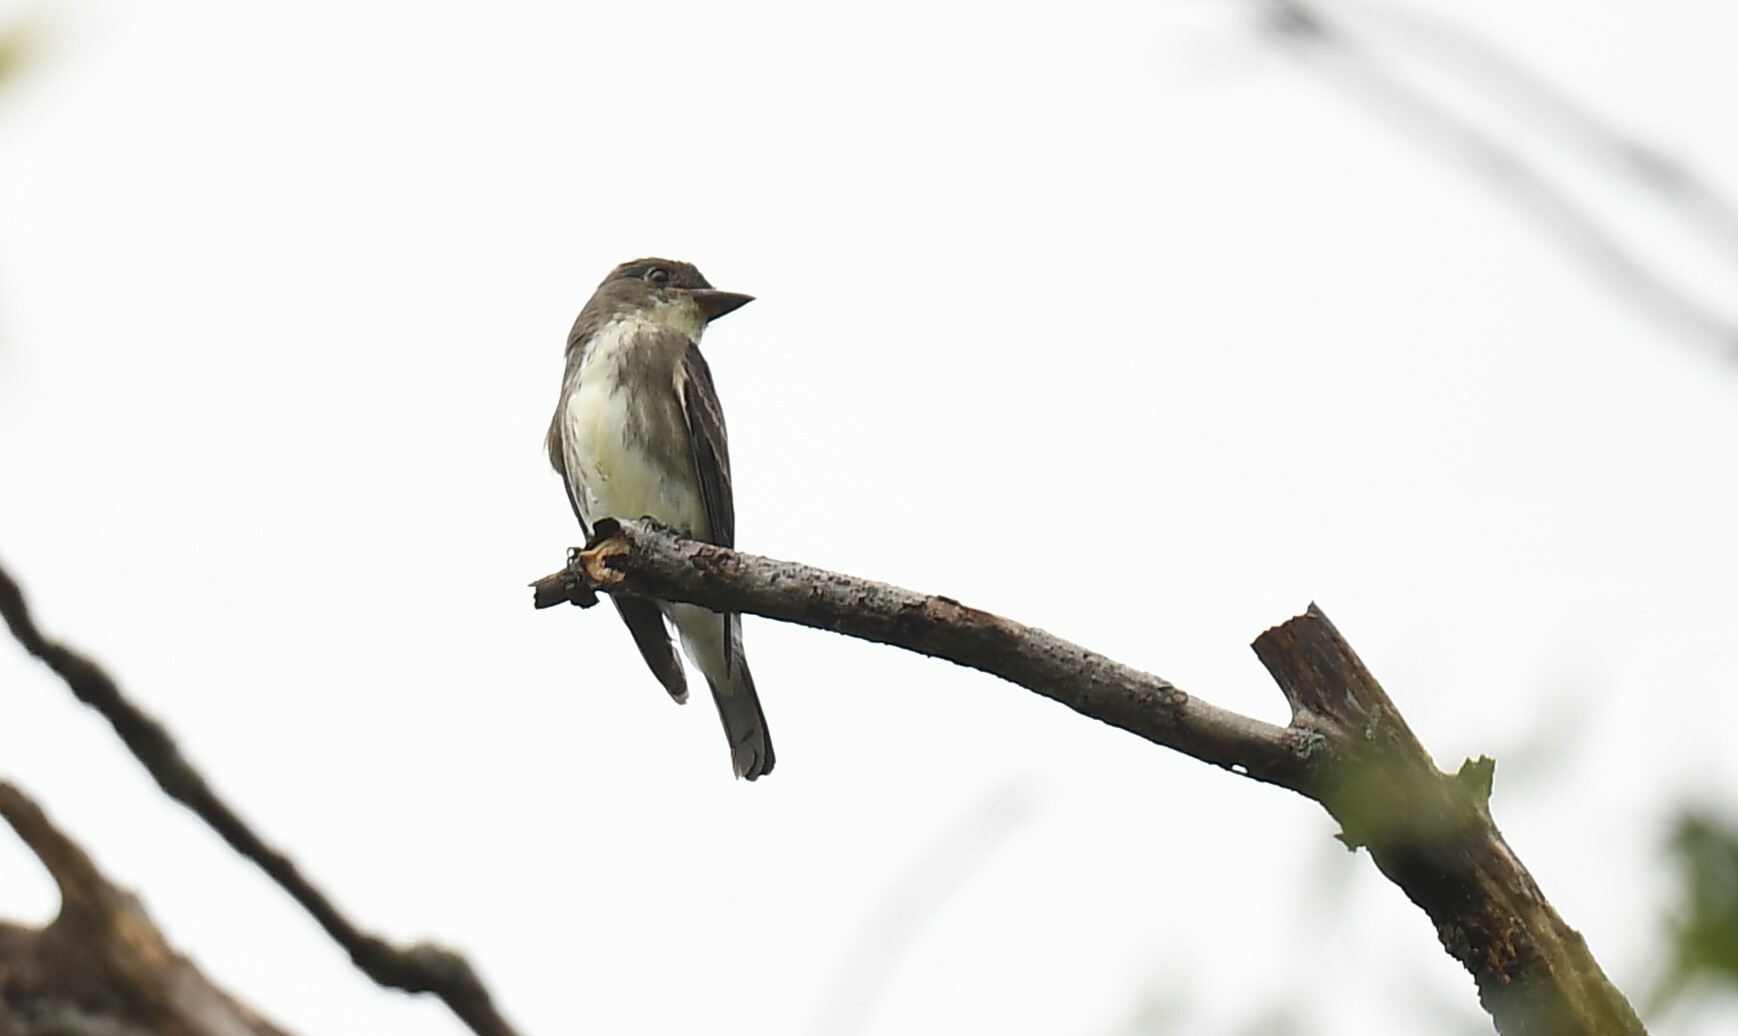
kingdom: Animalia
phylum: Chordata
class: Aves
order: Passeriformes
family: Tyrannidae
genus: Contopus
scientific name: Contopus cooperi
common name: Olive-sided flycatcher
